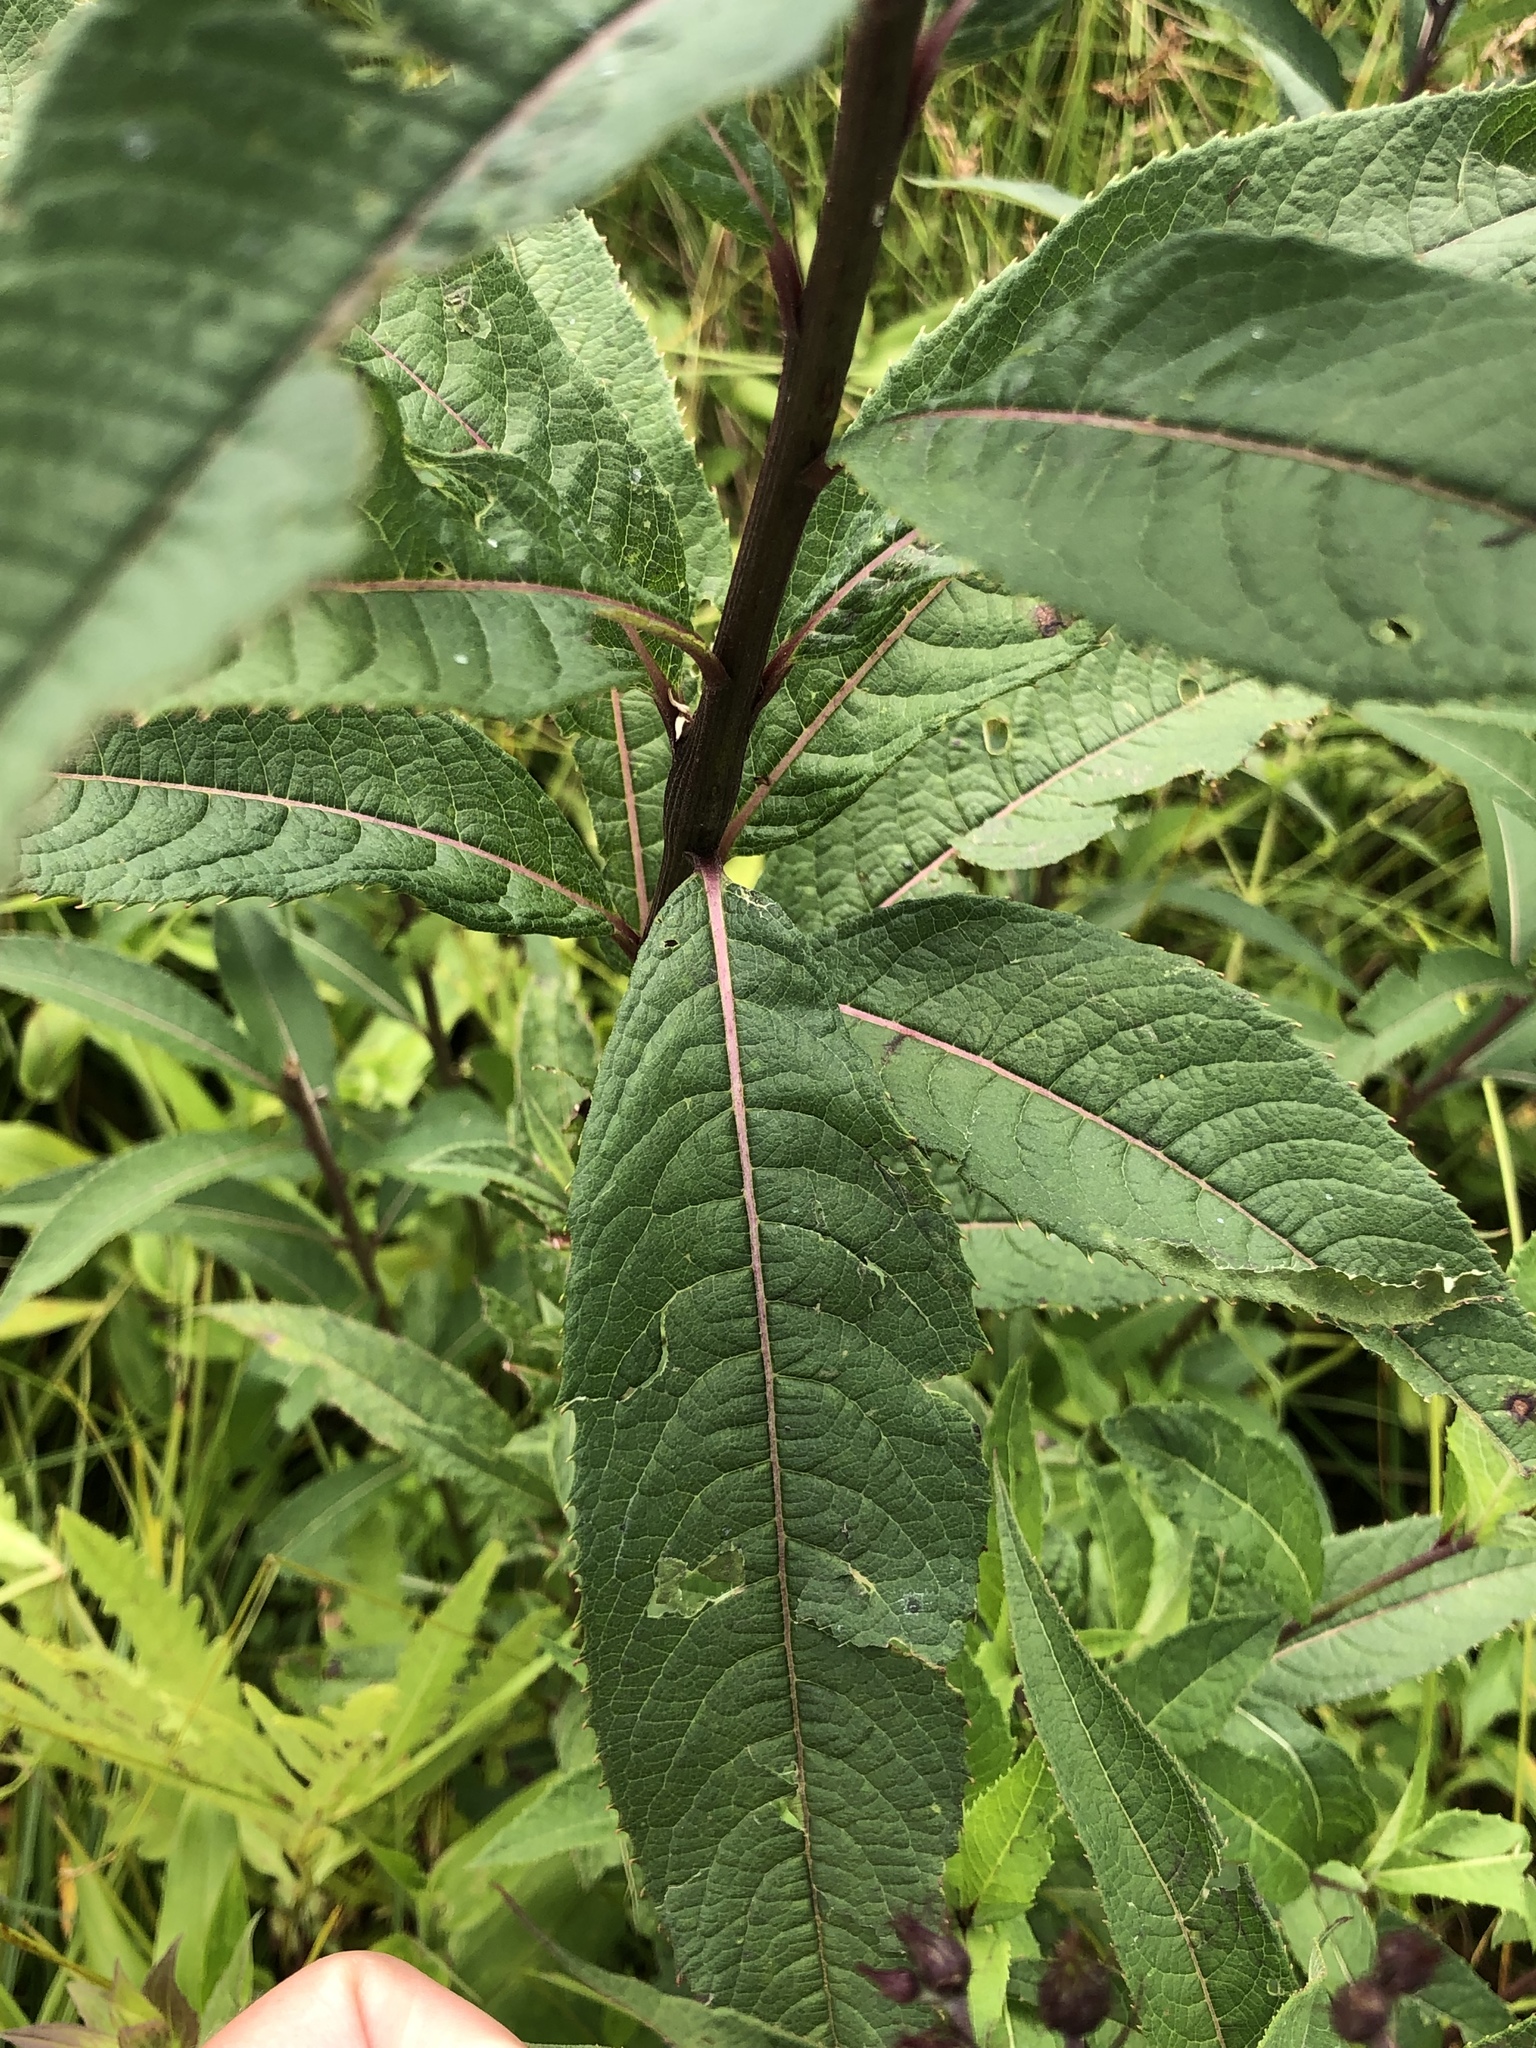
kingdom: Plantae
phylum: Tracheophyta
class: Magnoliopsida
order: Asterales
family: Asteraceae
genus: Vernonia
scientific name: Vernonia gigantea
